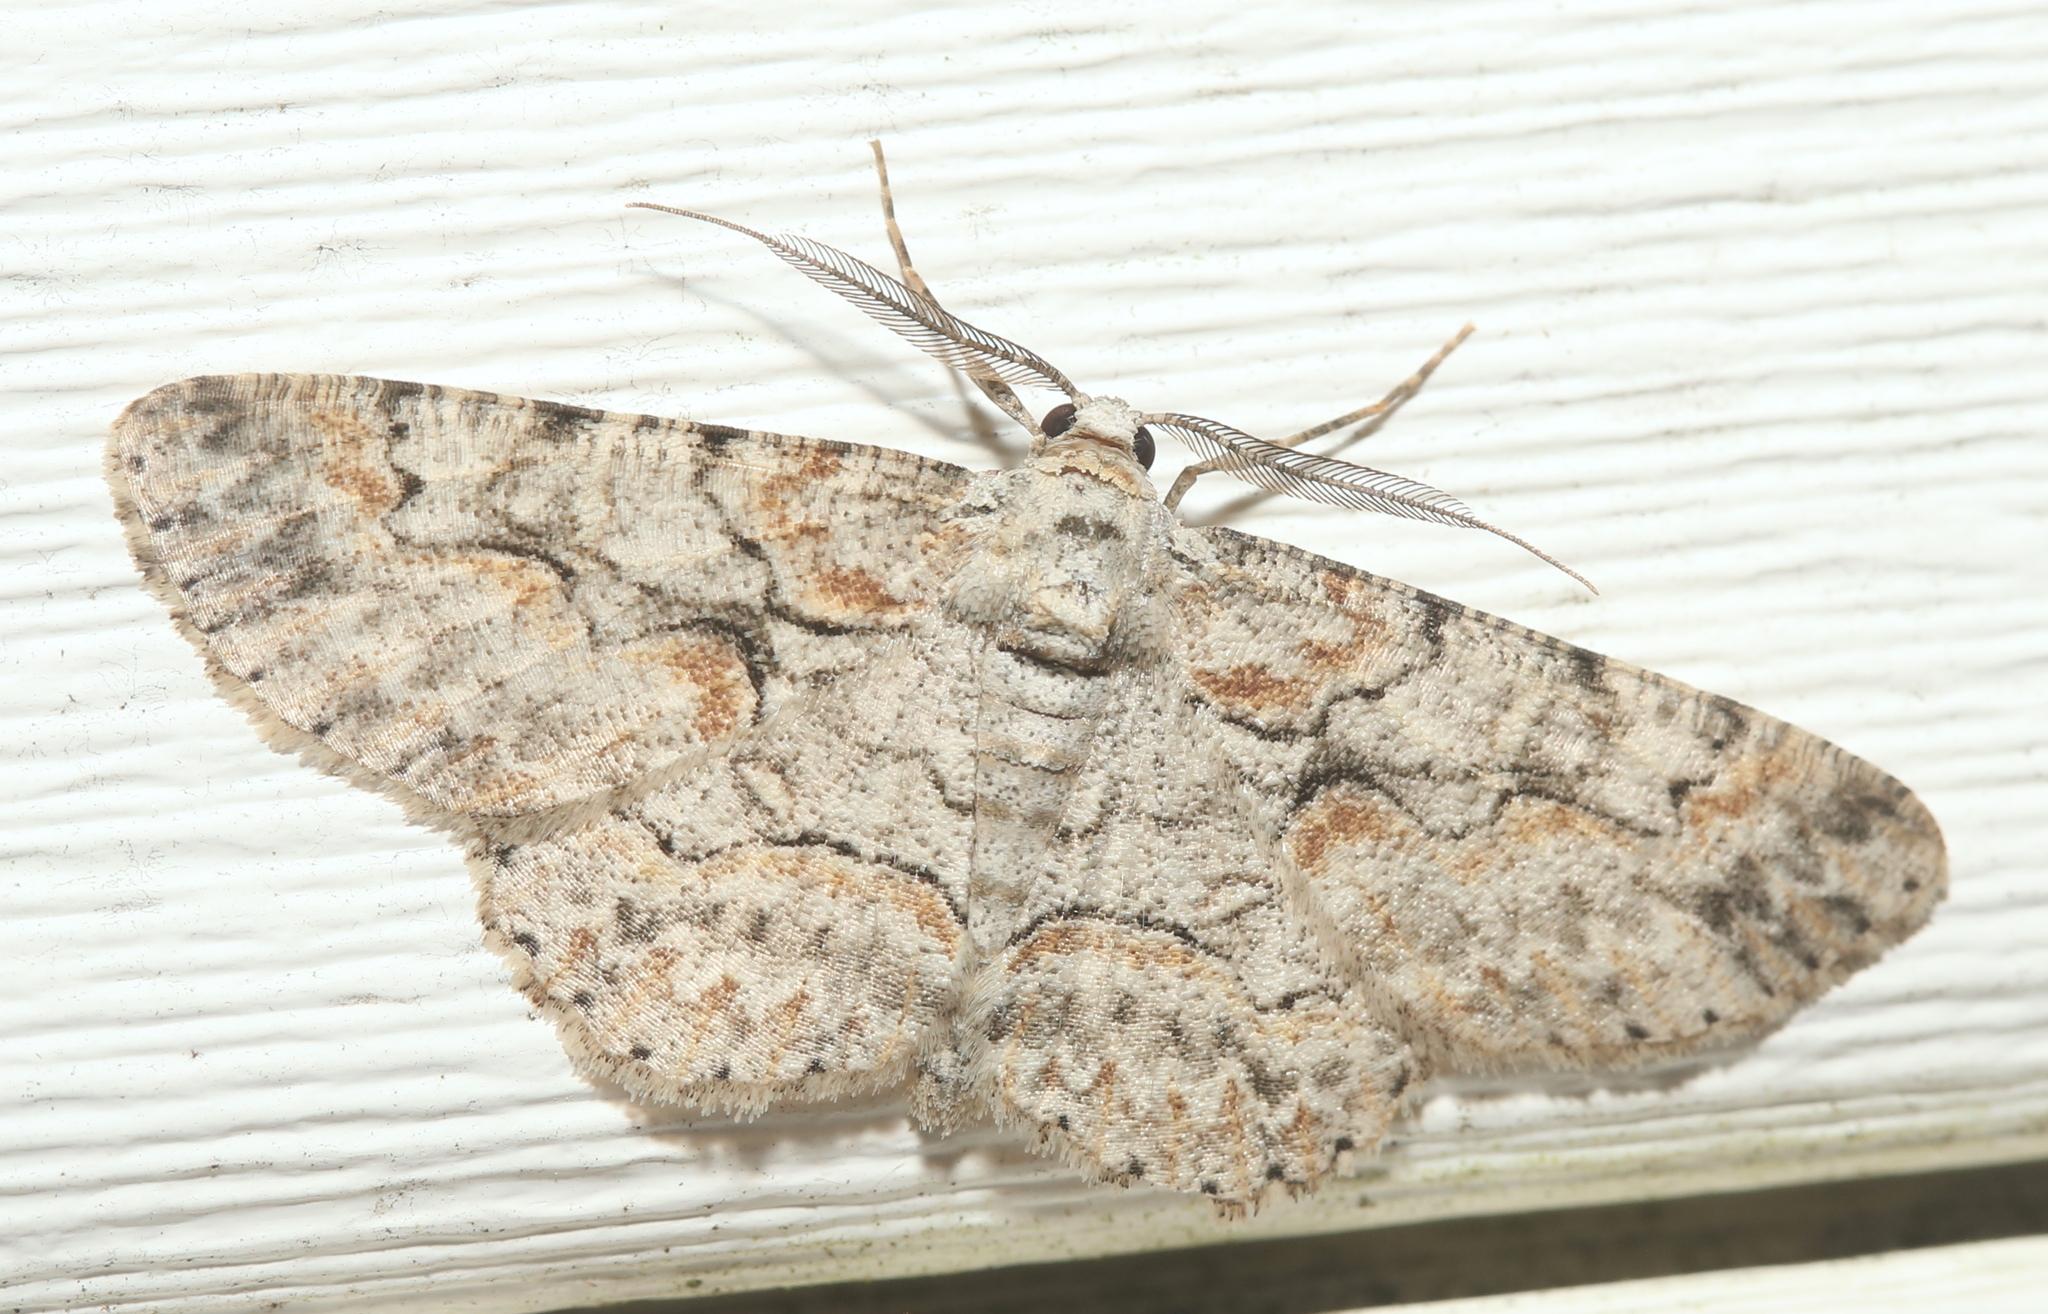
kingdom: Animalia
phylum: Arthropoda
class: Insecta
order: Lepidoptera
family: Geometridae
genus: Iridopsis
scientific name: Iridopsis defectaria
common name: Brown-shaded gray
